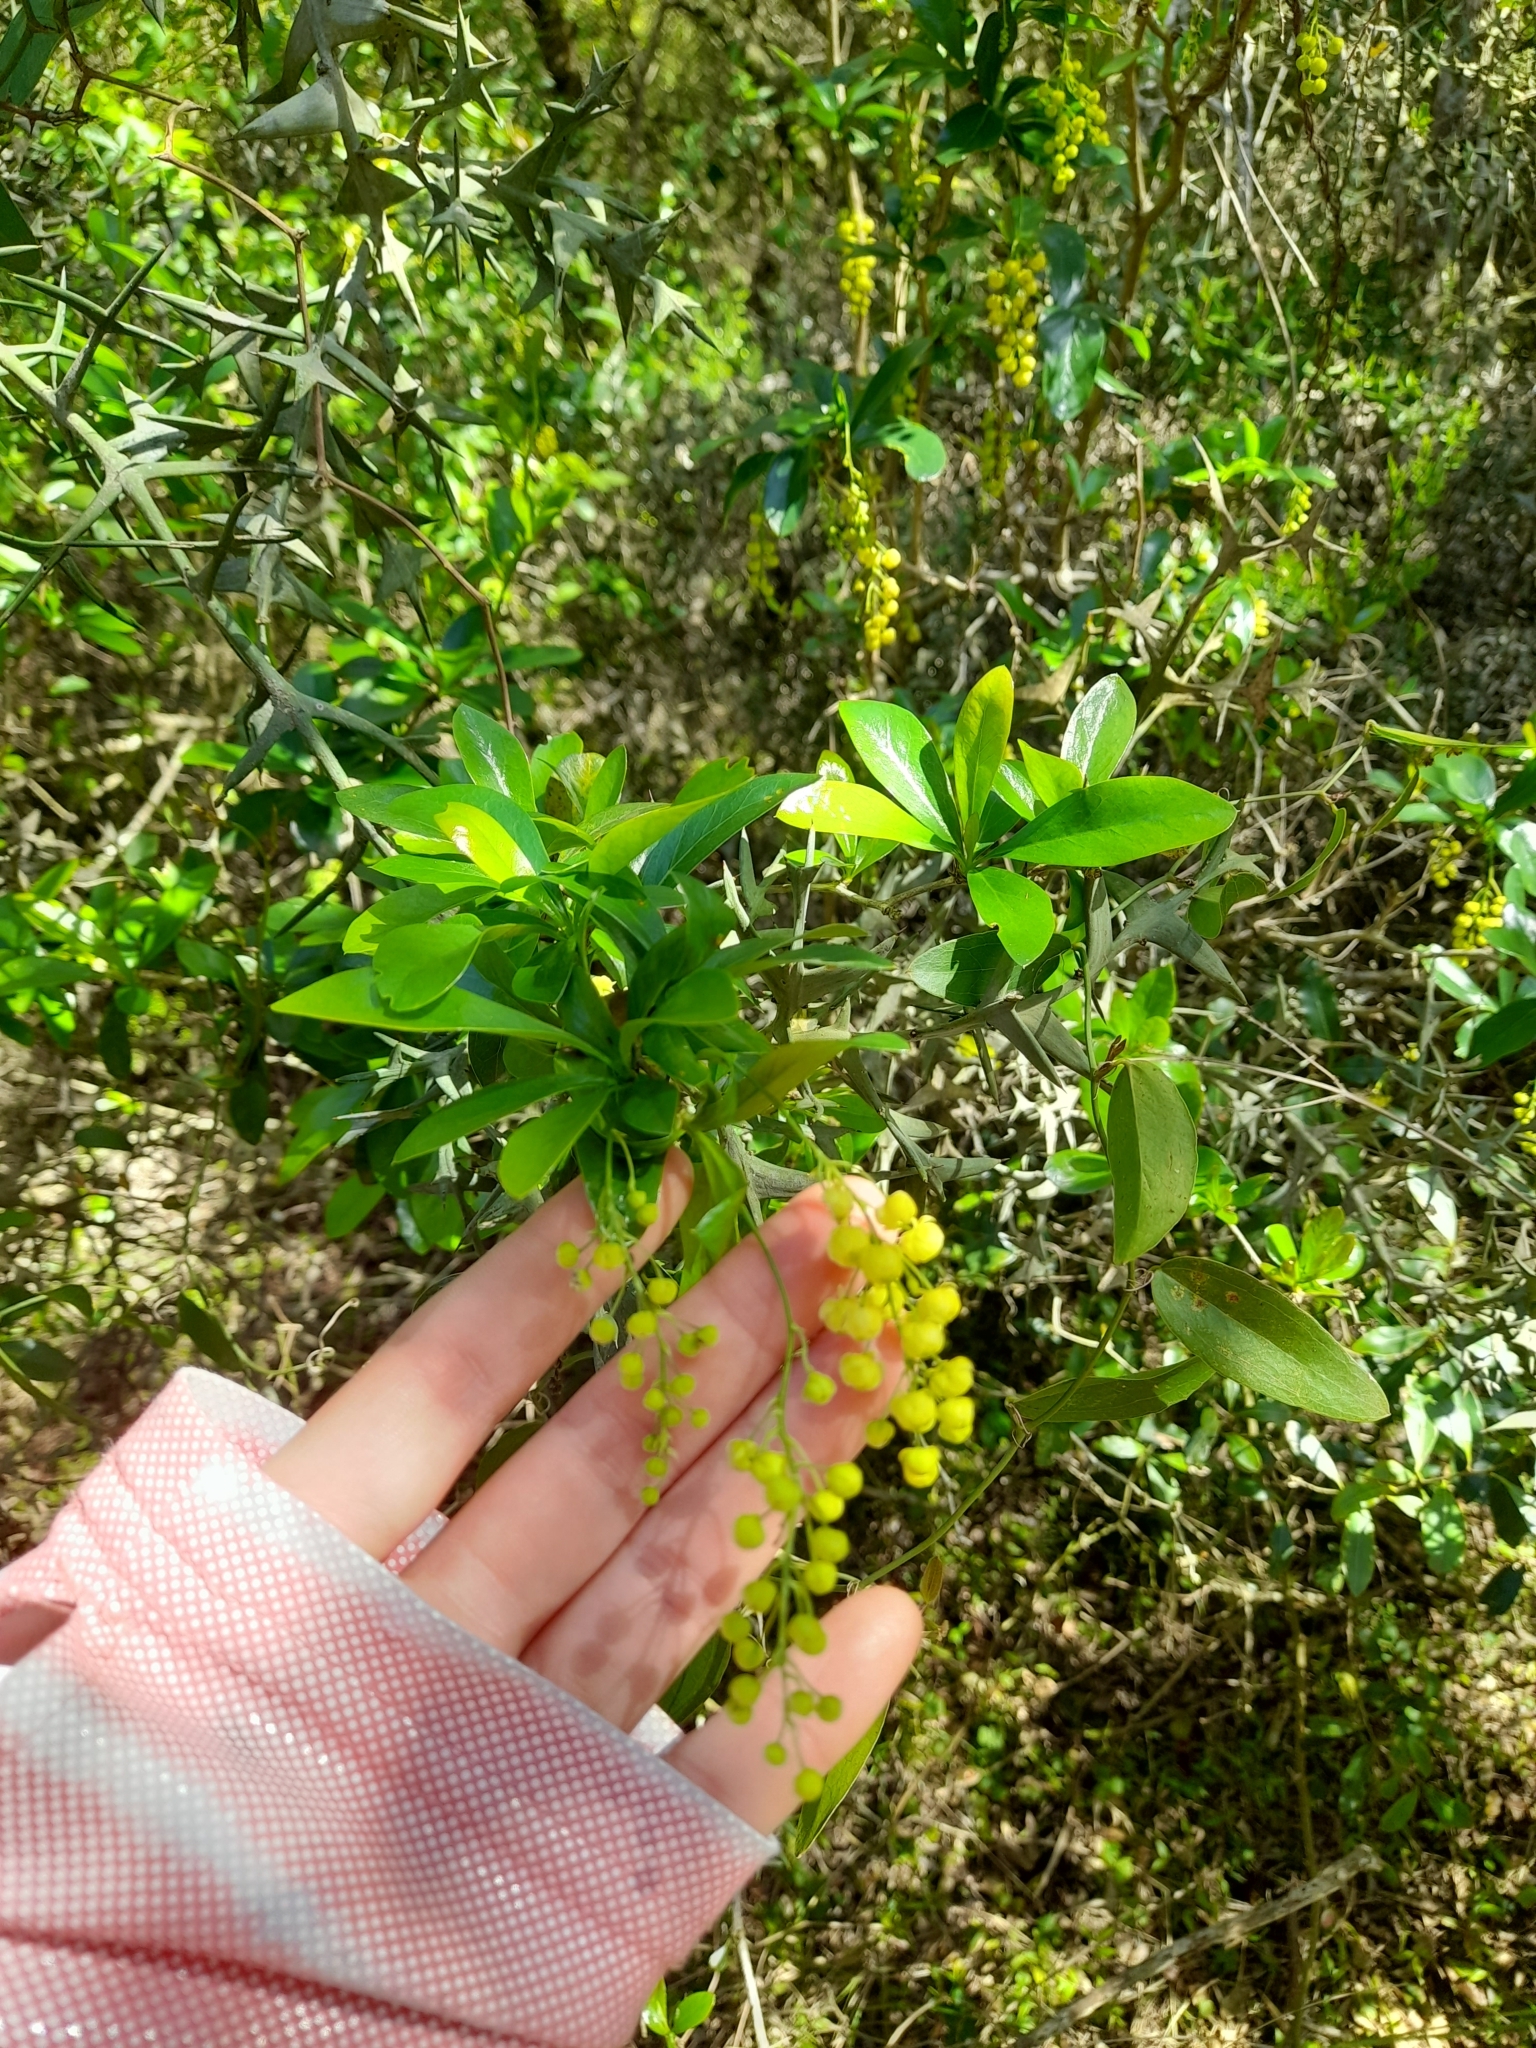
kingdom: Plantae
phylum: Tracheophyta
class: Magnoliopsida
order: Ranunculales
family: Berberidaceae
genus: Berberis
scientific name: Berberis laurina
